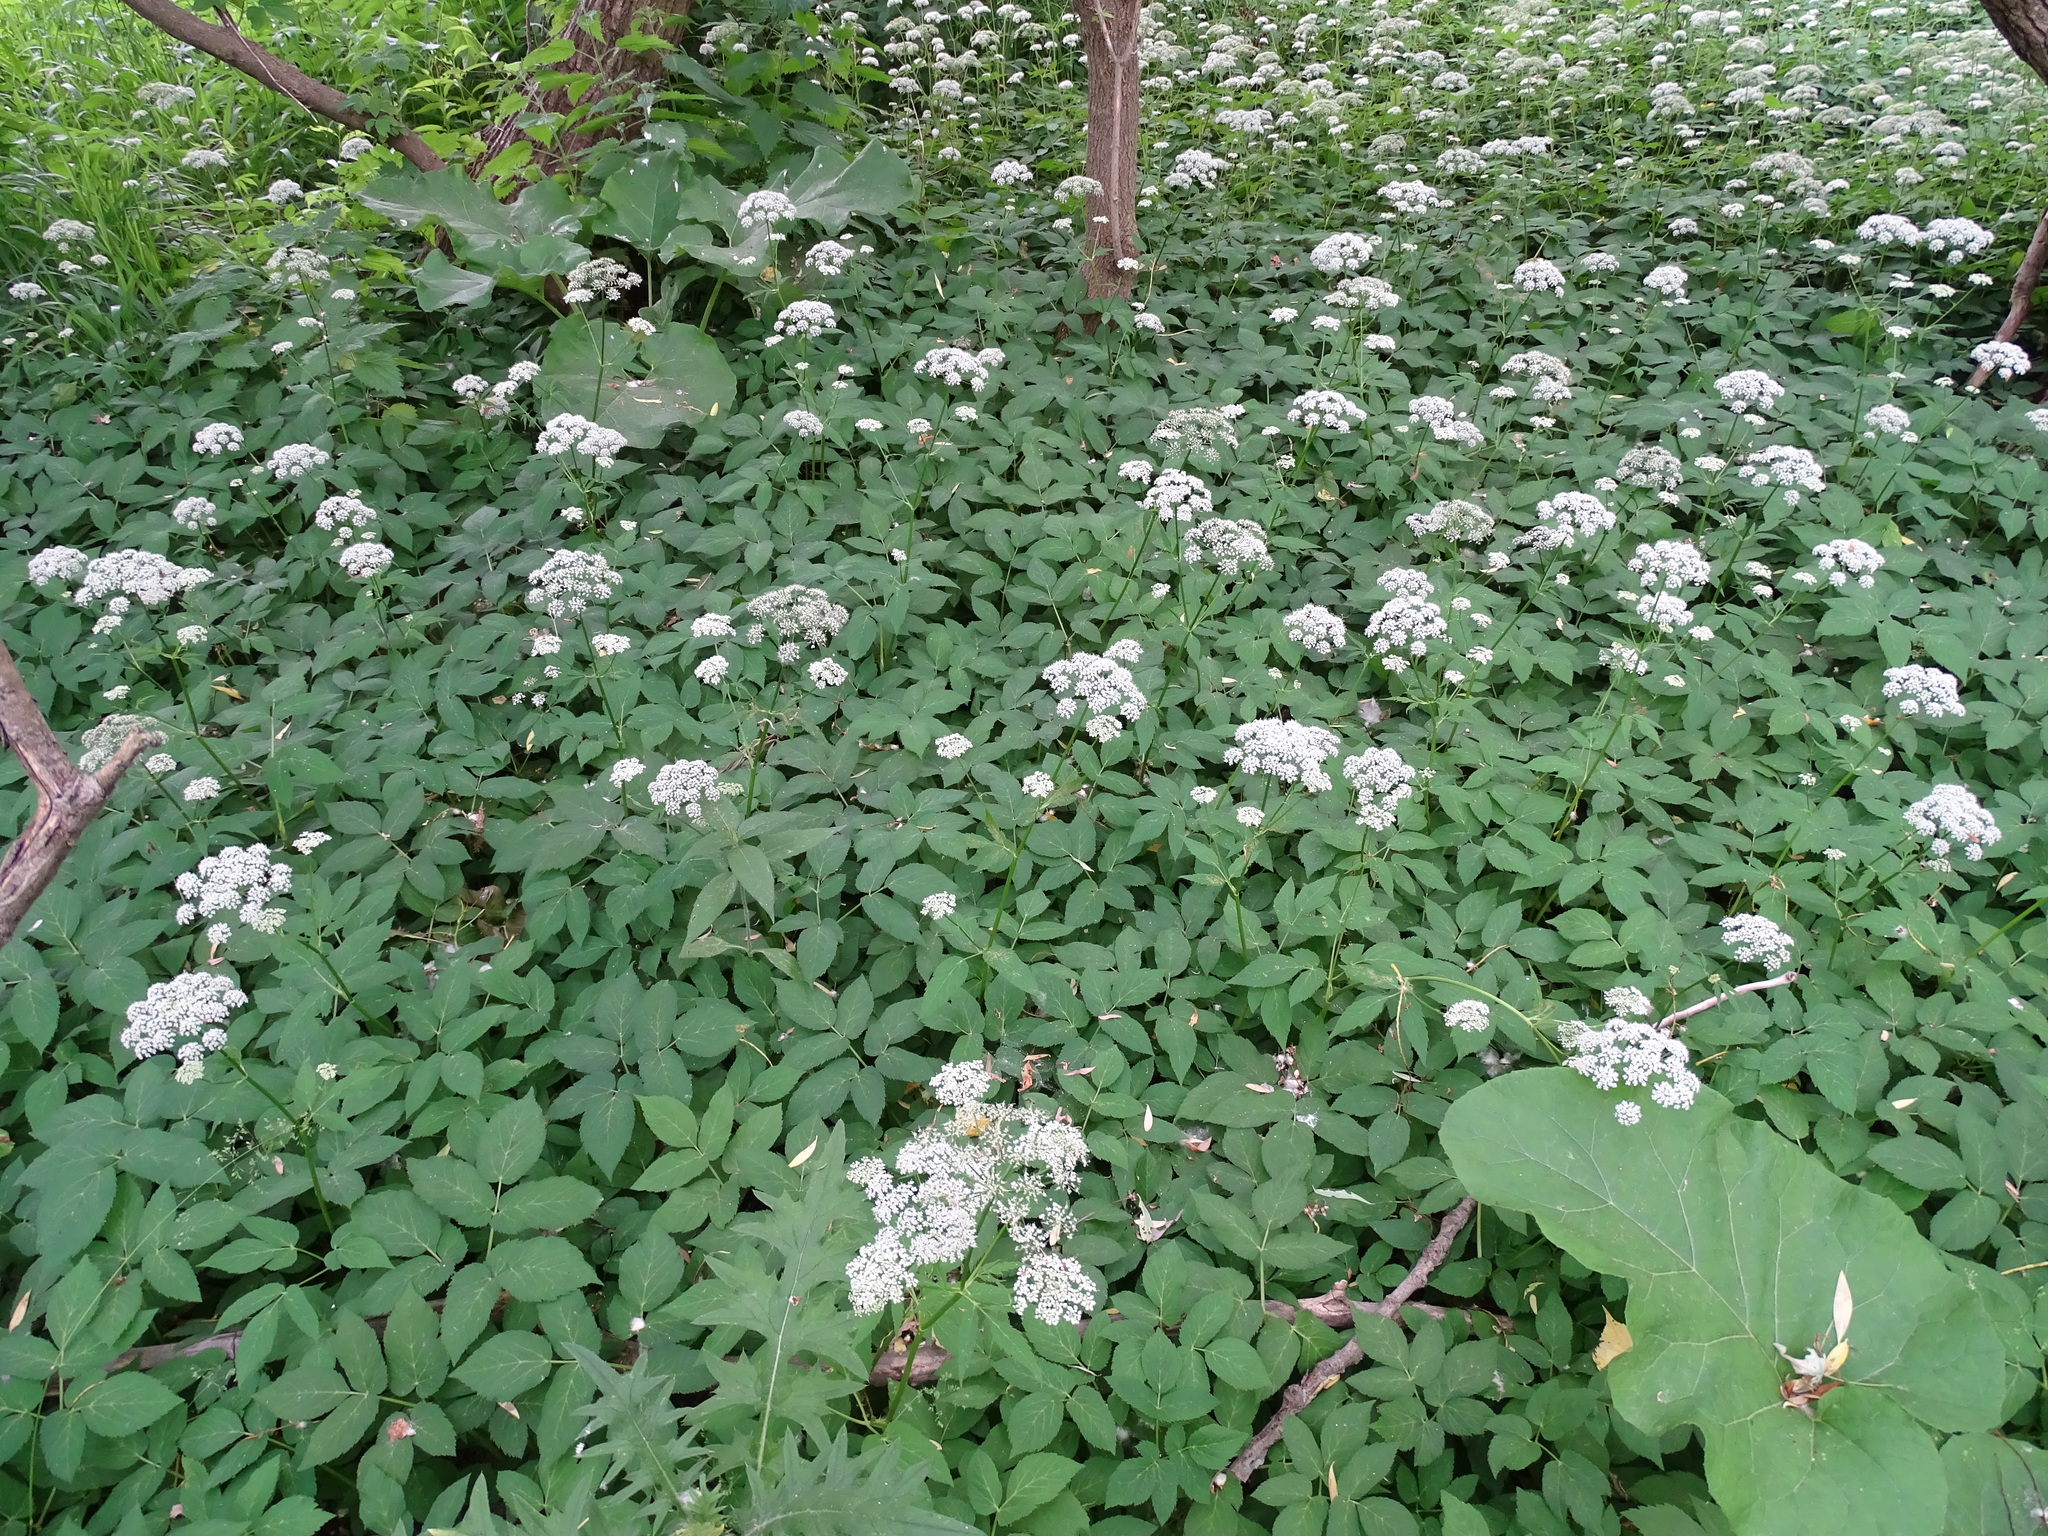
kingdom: Plantae
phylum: Tracheophyta
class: Magnoliopsida
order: Apiales
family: Apiaceae
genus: Aegopodium
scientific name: Aegopodium podagraria
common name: Ground-elder
